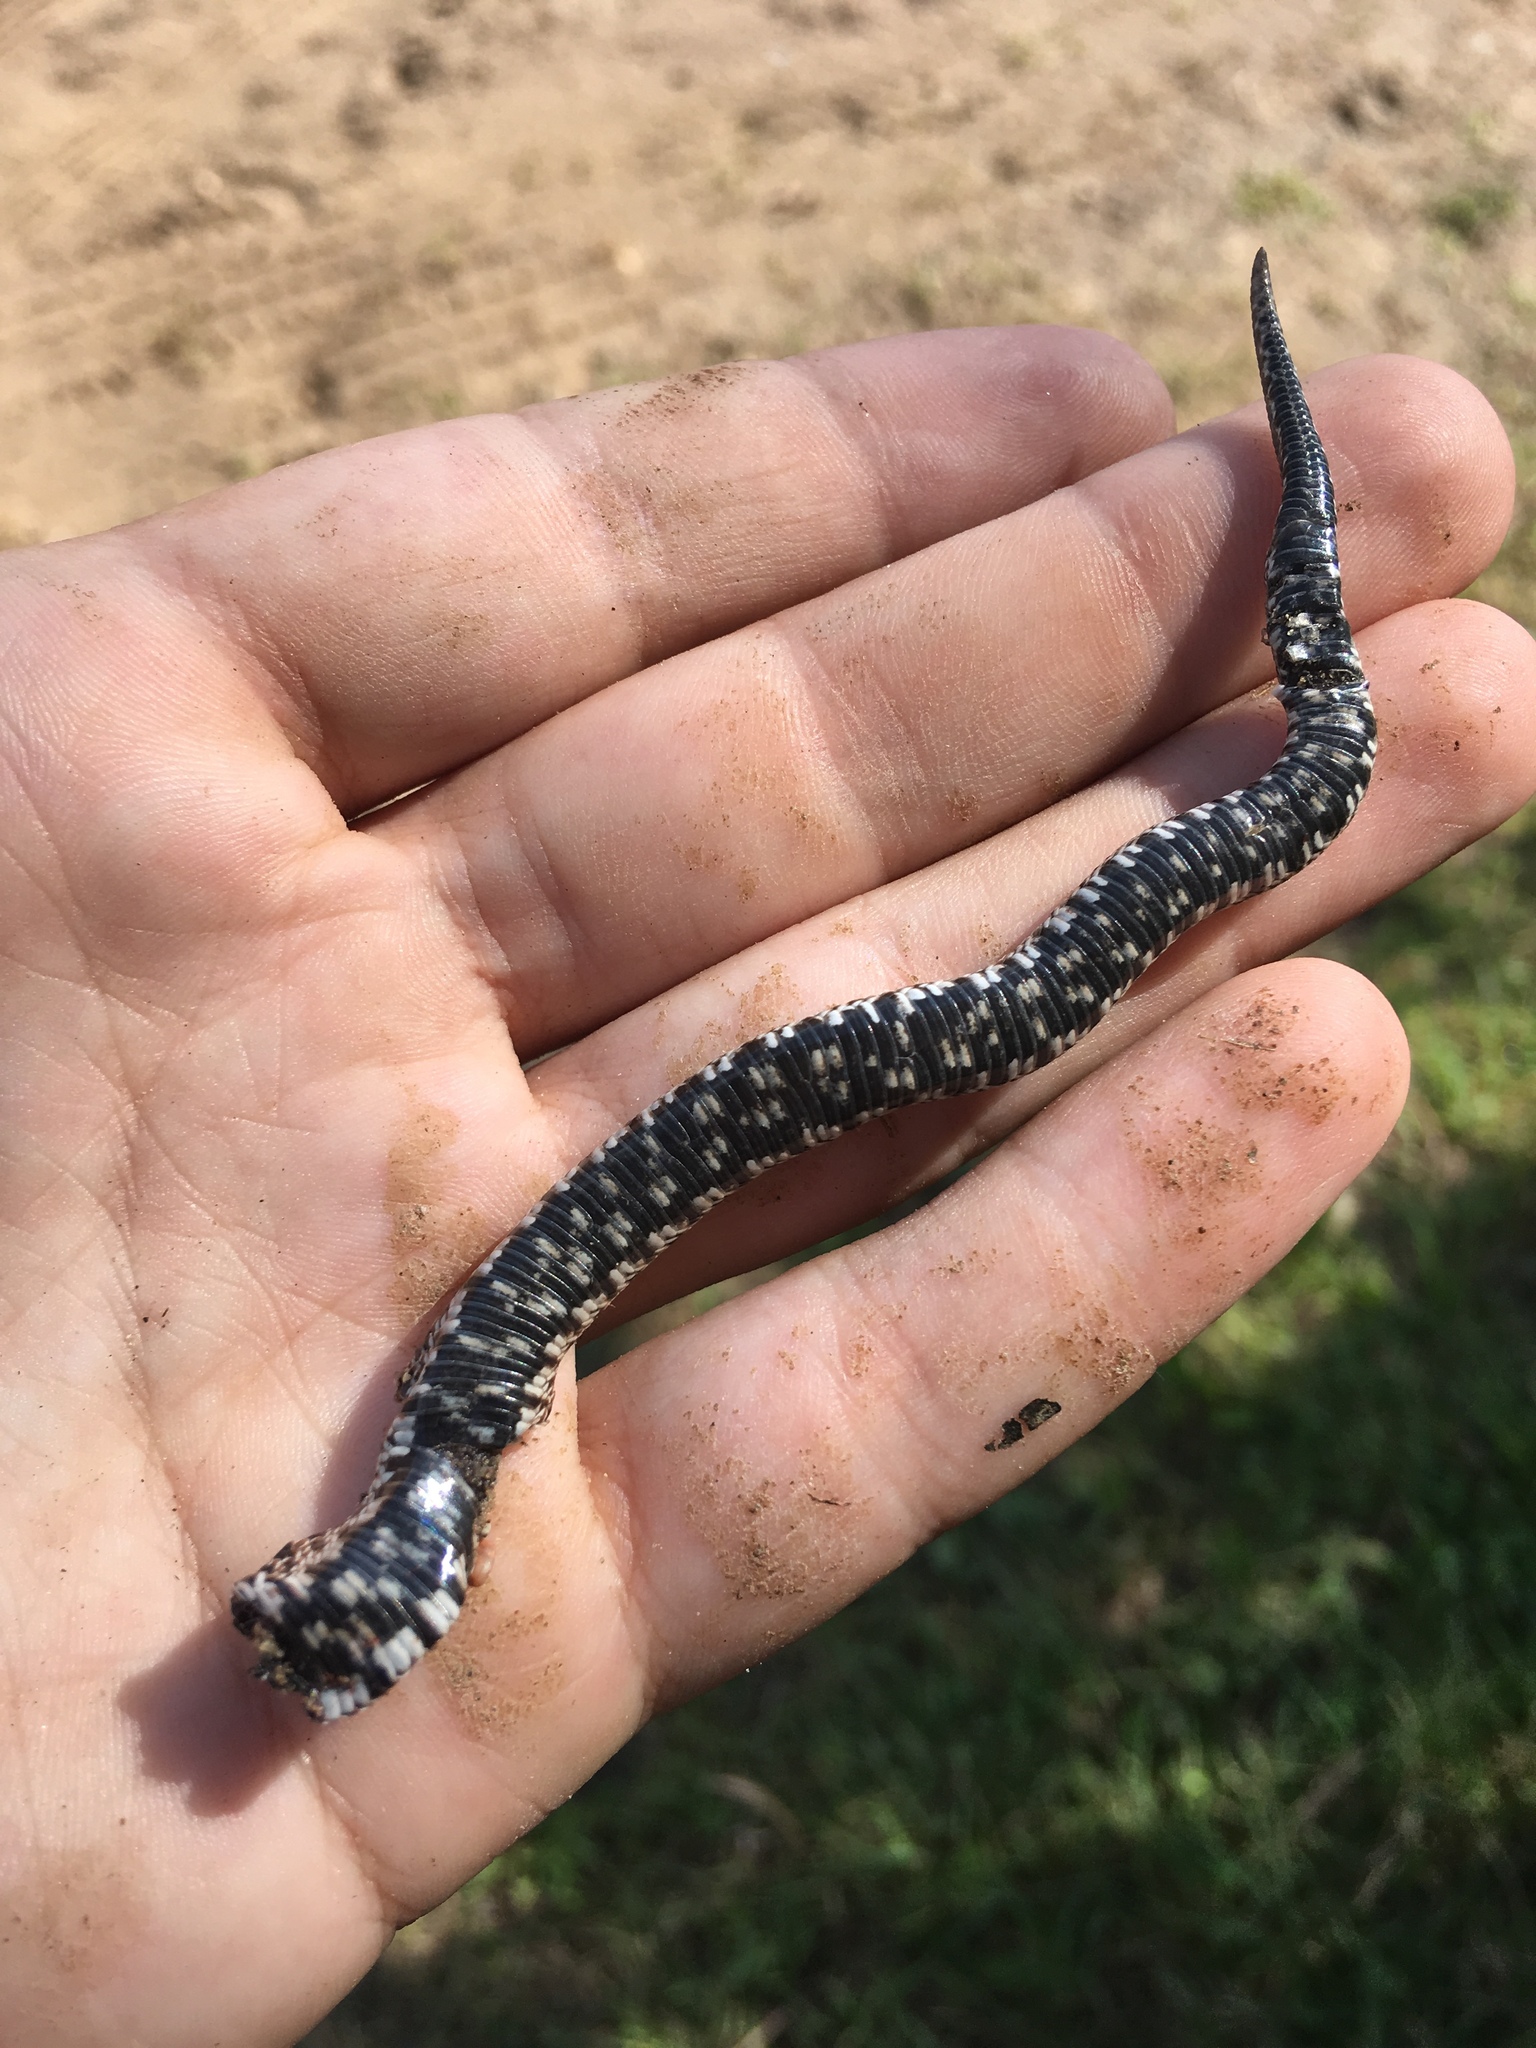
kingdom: Animalia
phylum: Chordata
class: Squamata
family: Colubridae
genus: Heterodon
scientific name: Heterodon nasicus
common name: Western hognose snake
